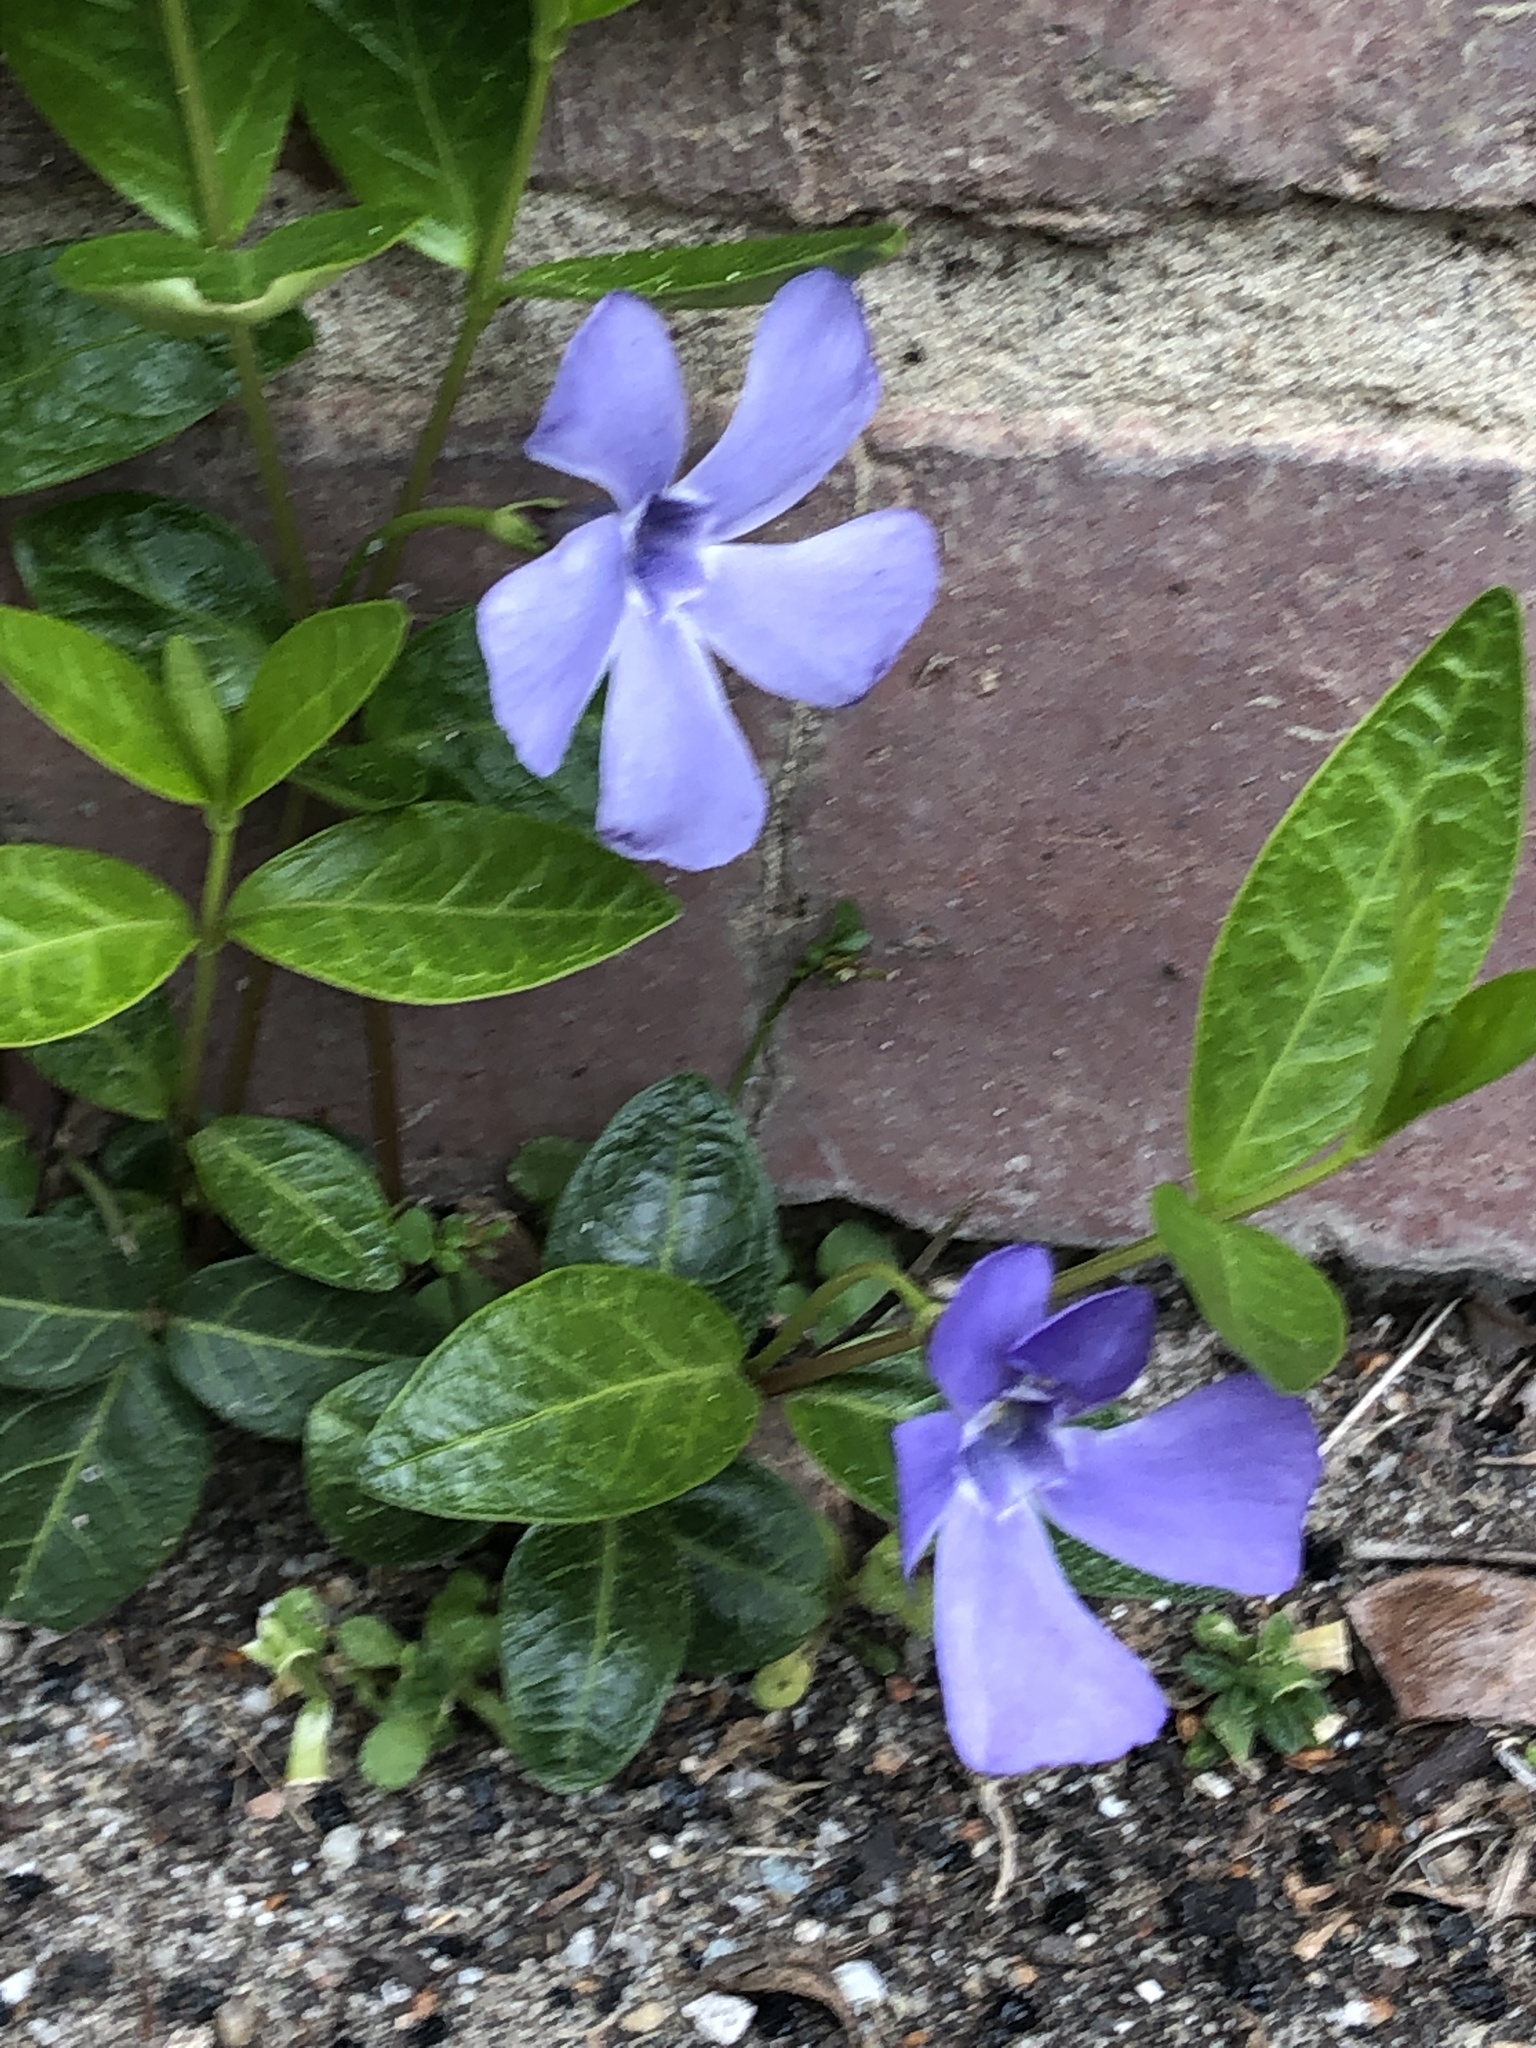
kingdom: Plantae
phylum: Tracheophyta
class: Magnoliopsida
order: Gentianales
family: Apocynaceae
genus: Vinca
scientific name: Vinca minor
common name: Lesser periwinkle
